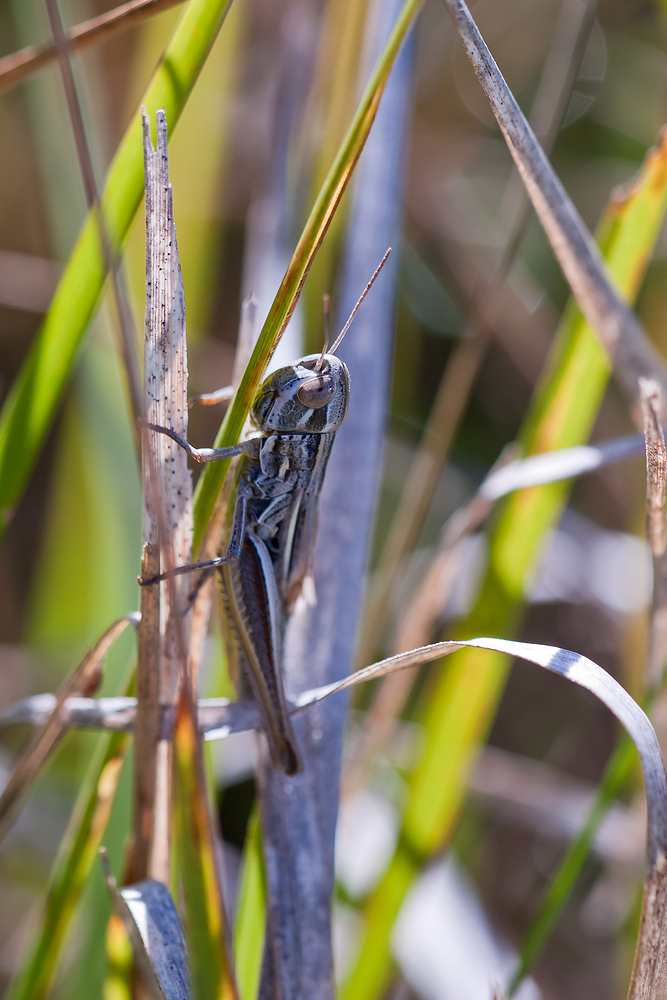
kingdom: Animalia
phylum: Arthropoda
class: Insecta
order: Orthoptera
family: Acrididae
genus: Euchorthippus
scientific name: Euchorthippus declivus
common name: Common straw grasshopper
